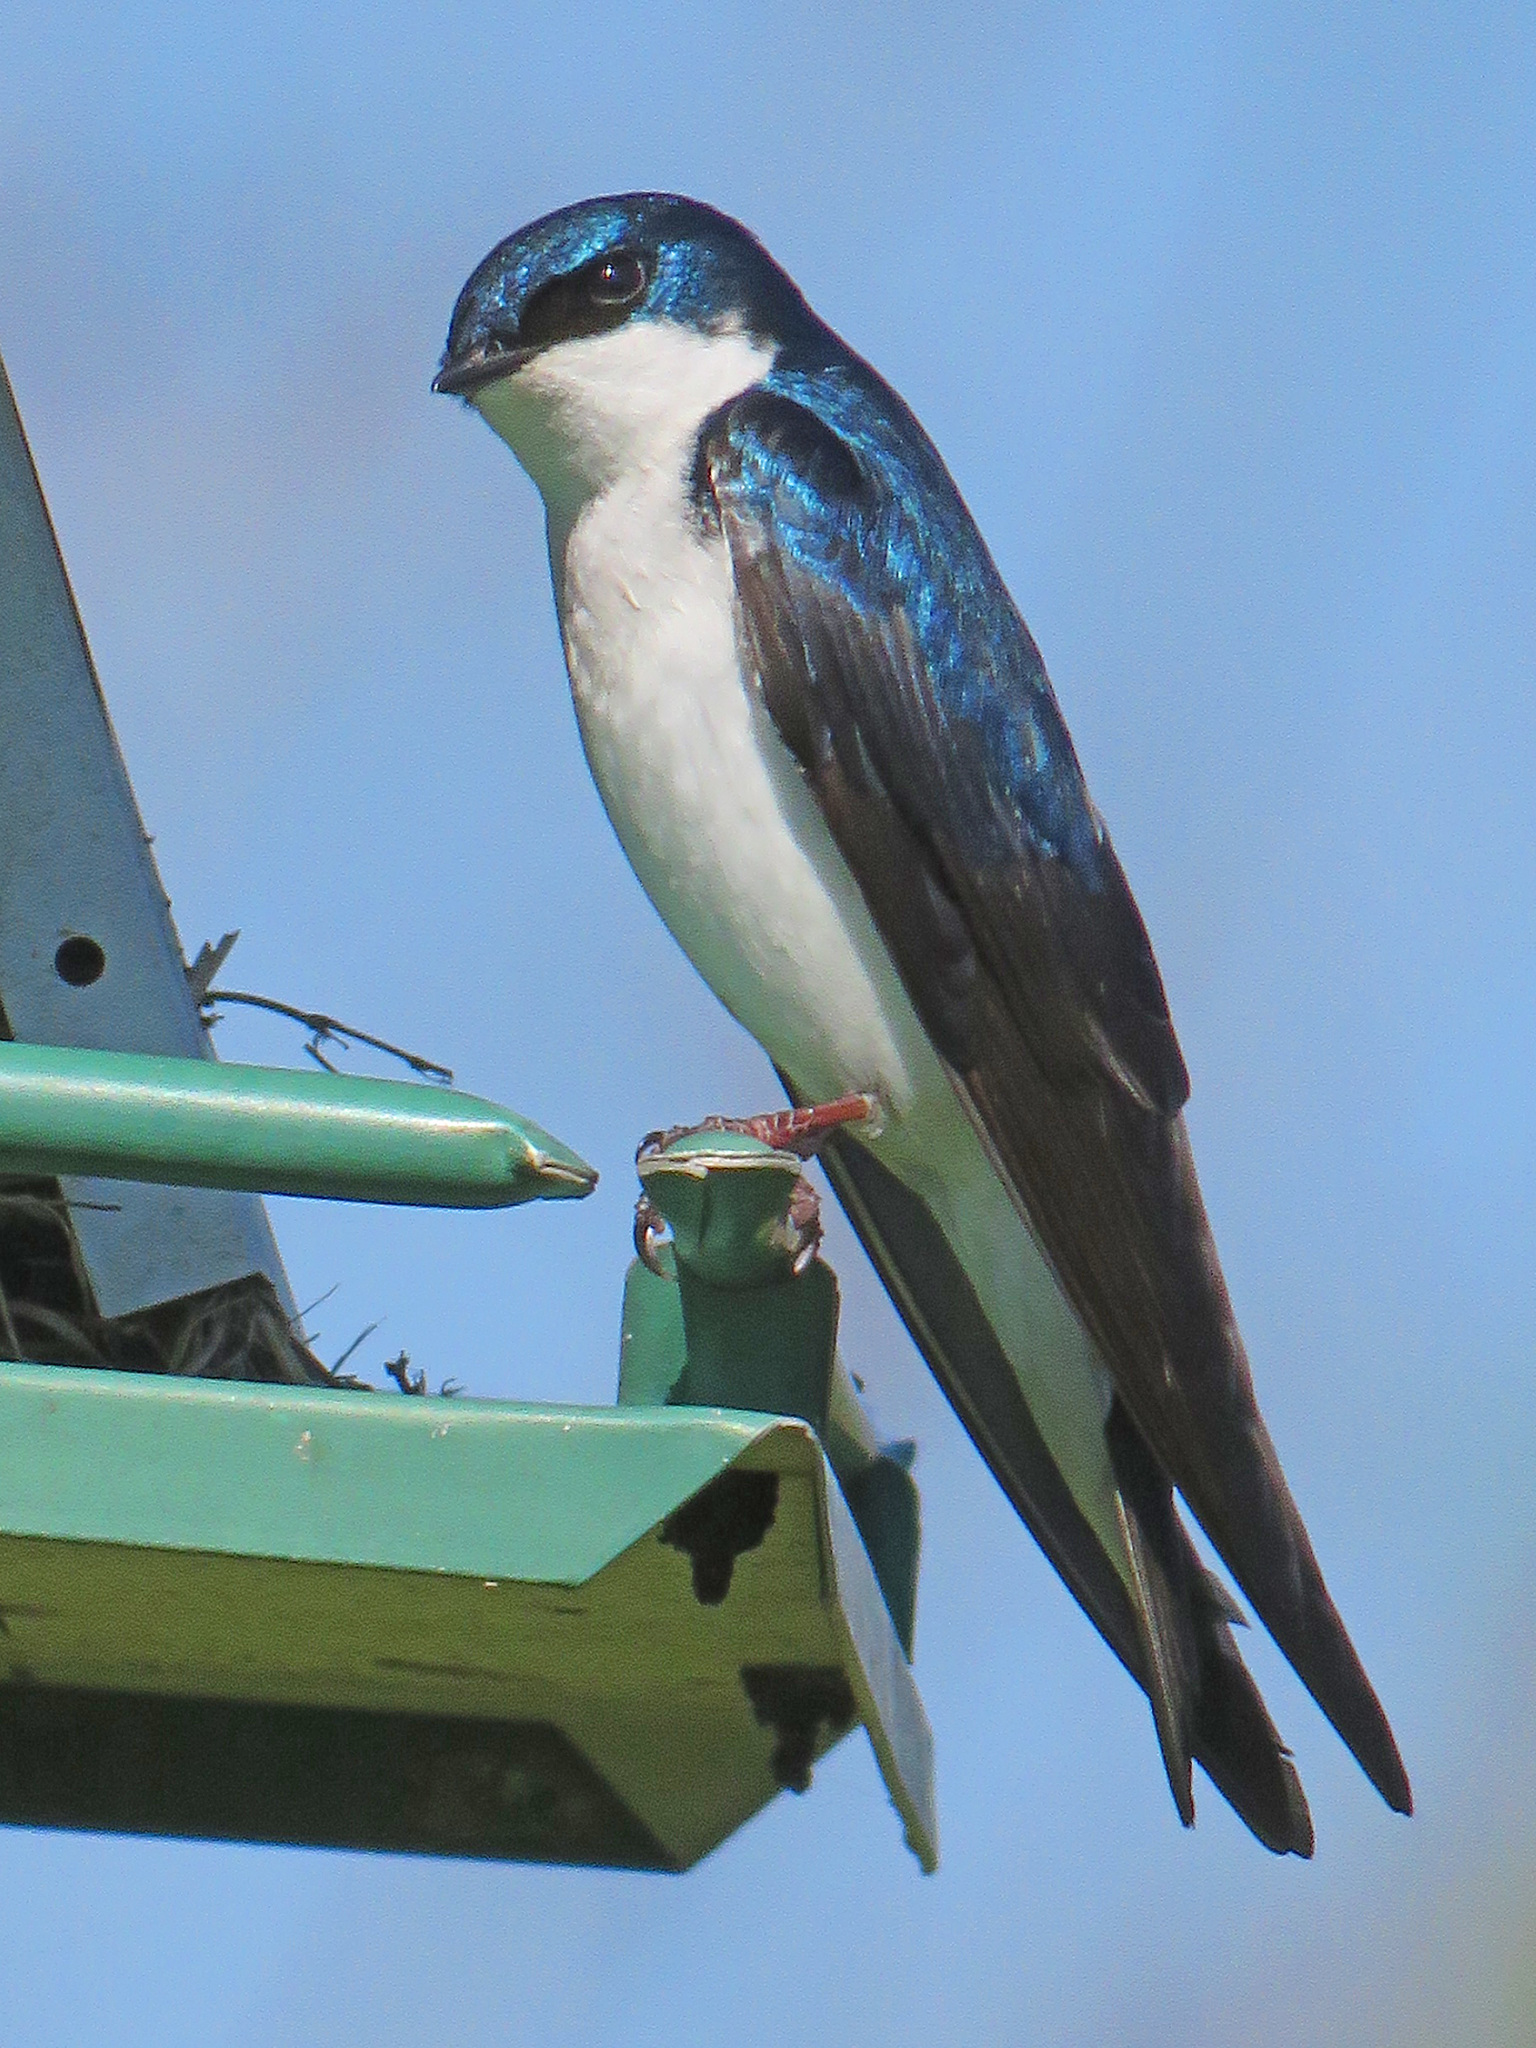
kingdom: Animalia
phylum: Chordata
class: Aves
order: Passeriformes
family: Hirundinidae
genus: Tachycineta
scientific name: Tachycineta bicolor
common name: Tree swallow
